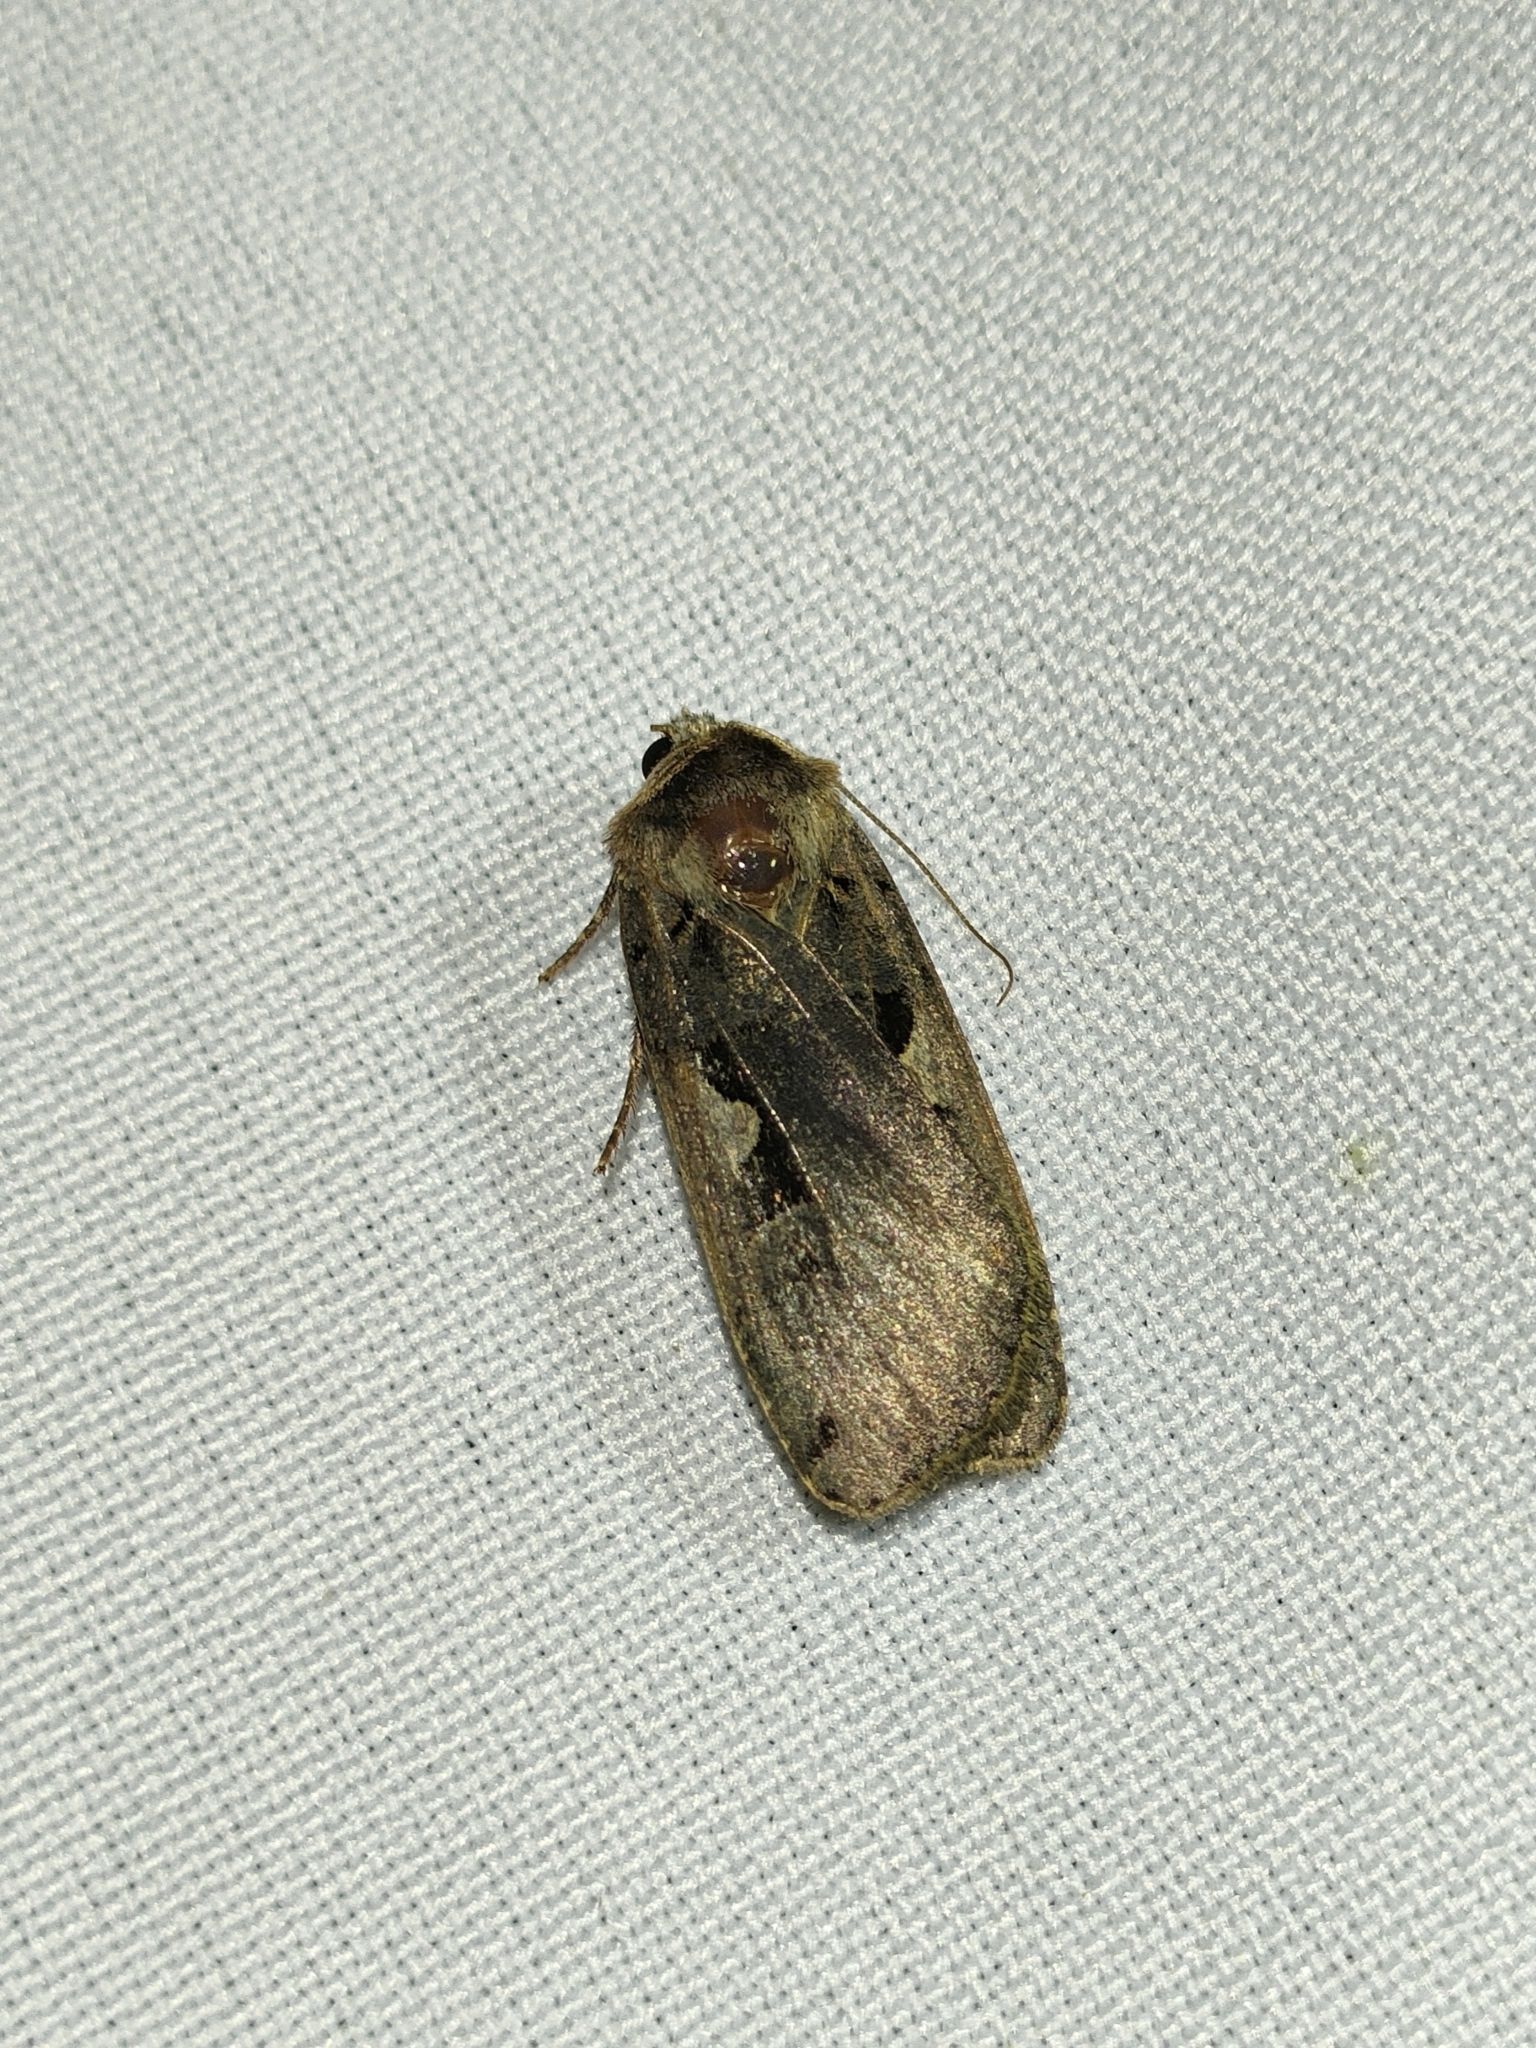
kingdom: Animalia
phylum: Arthropoda
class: Insecta
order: Lepidoptera
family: Noctuidae
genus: Xestia
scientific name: Xestia c-nigrum
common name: Setaceous hebrew character
